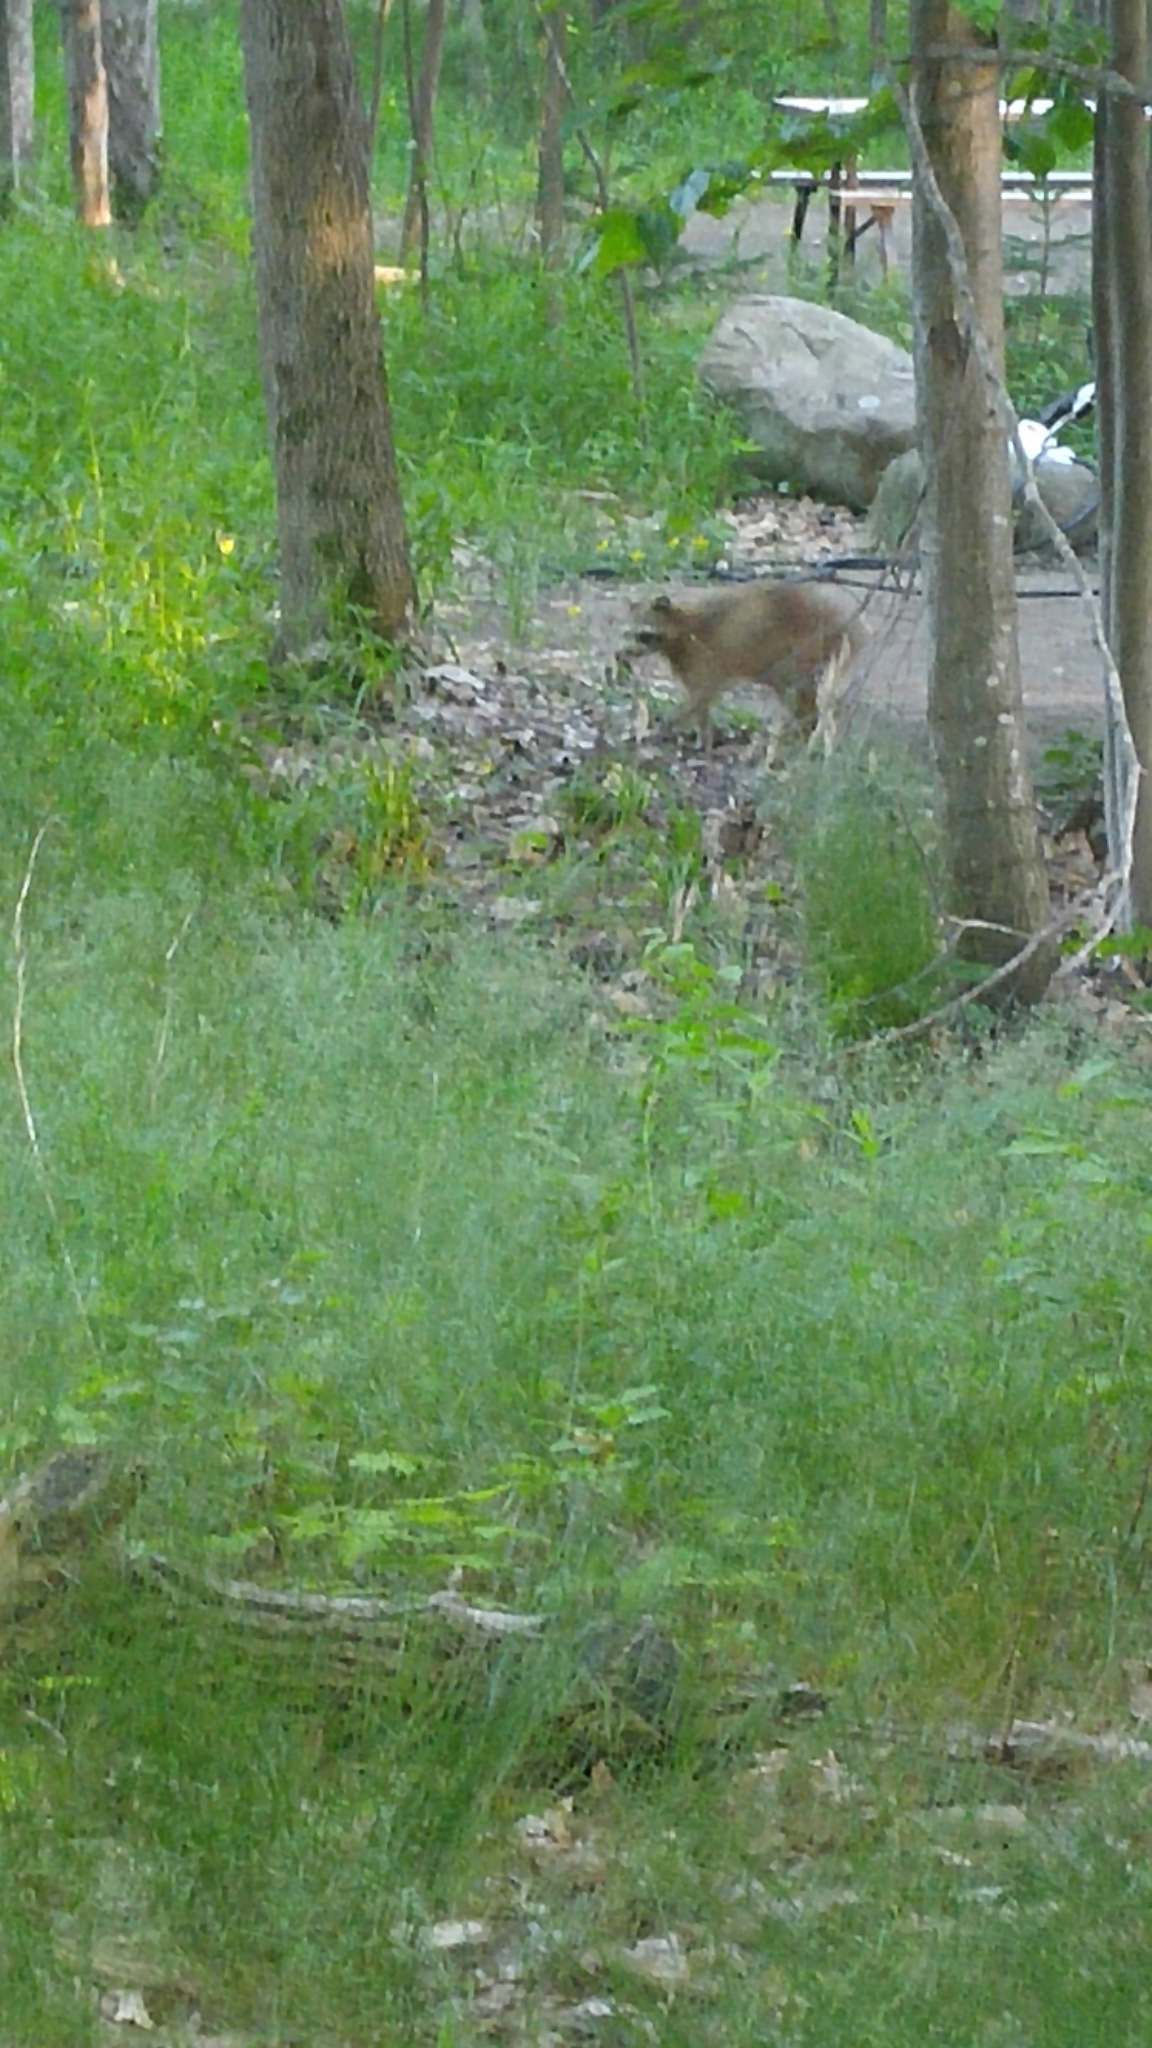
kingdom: Animalia
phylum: Chordata
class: Mammalia
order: Carnivora
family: Procyonidae
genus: Procyon
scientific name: Procyon lotor
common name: Raccoon
